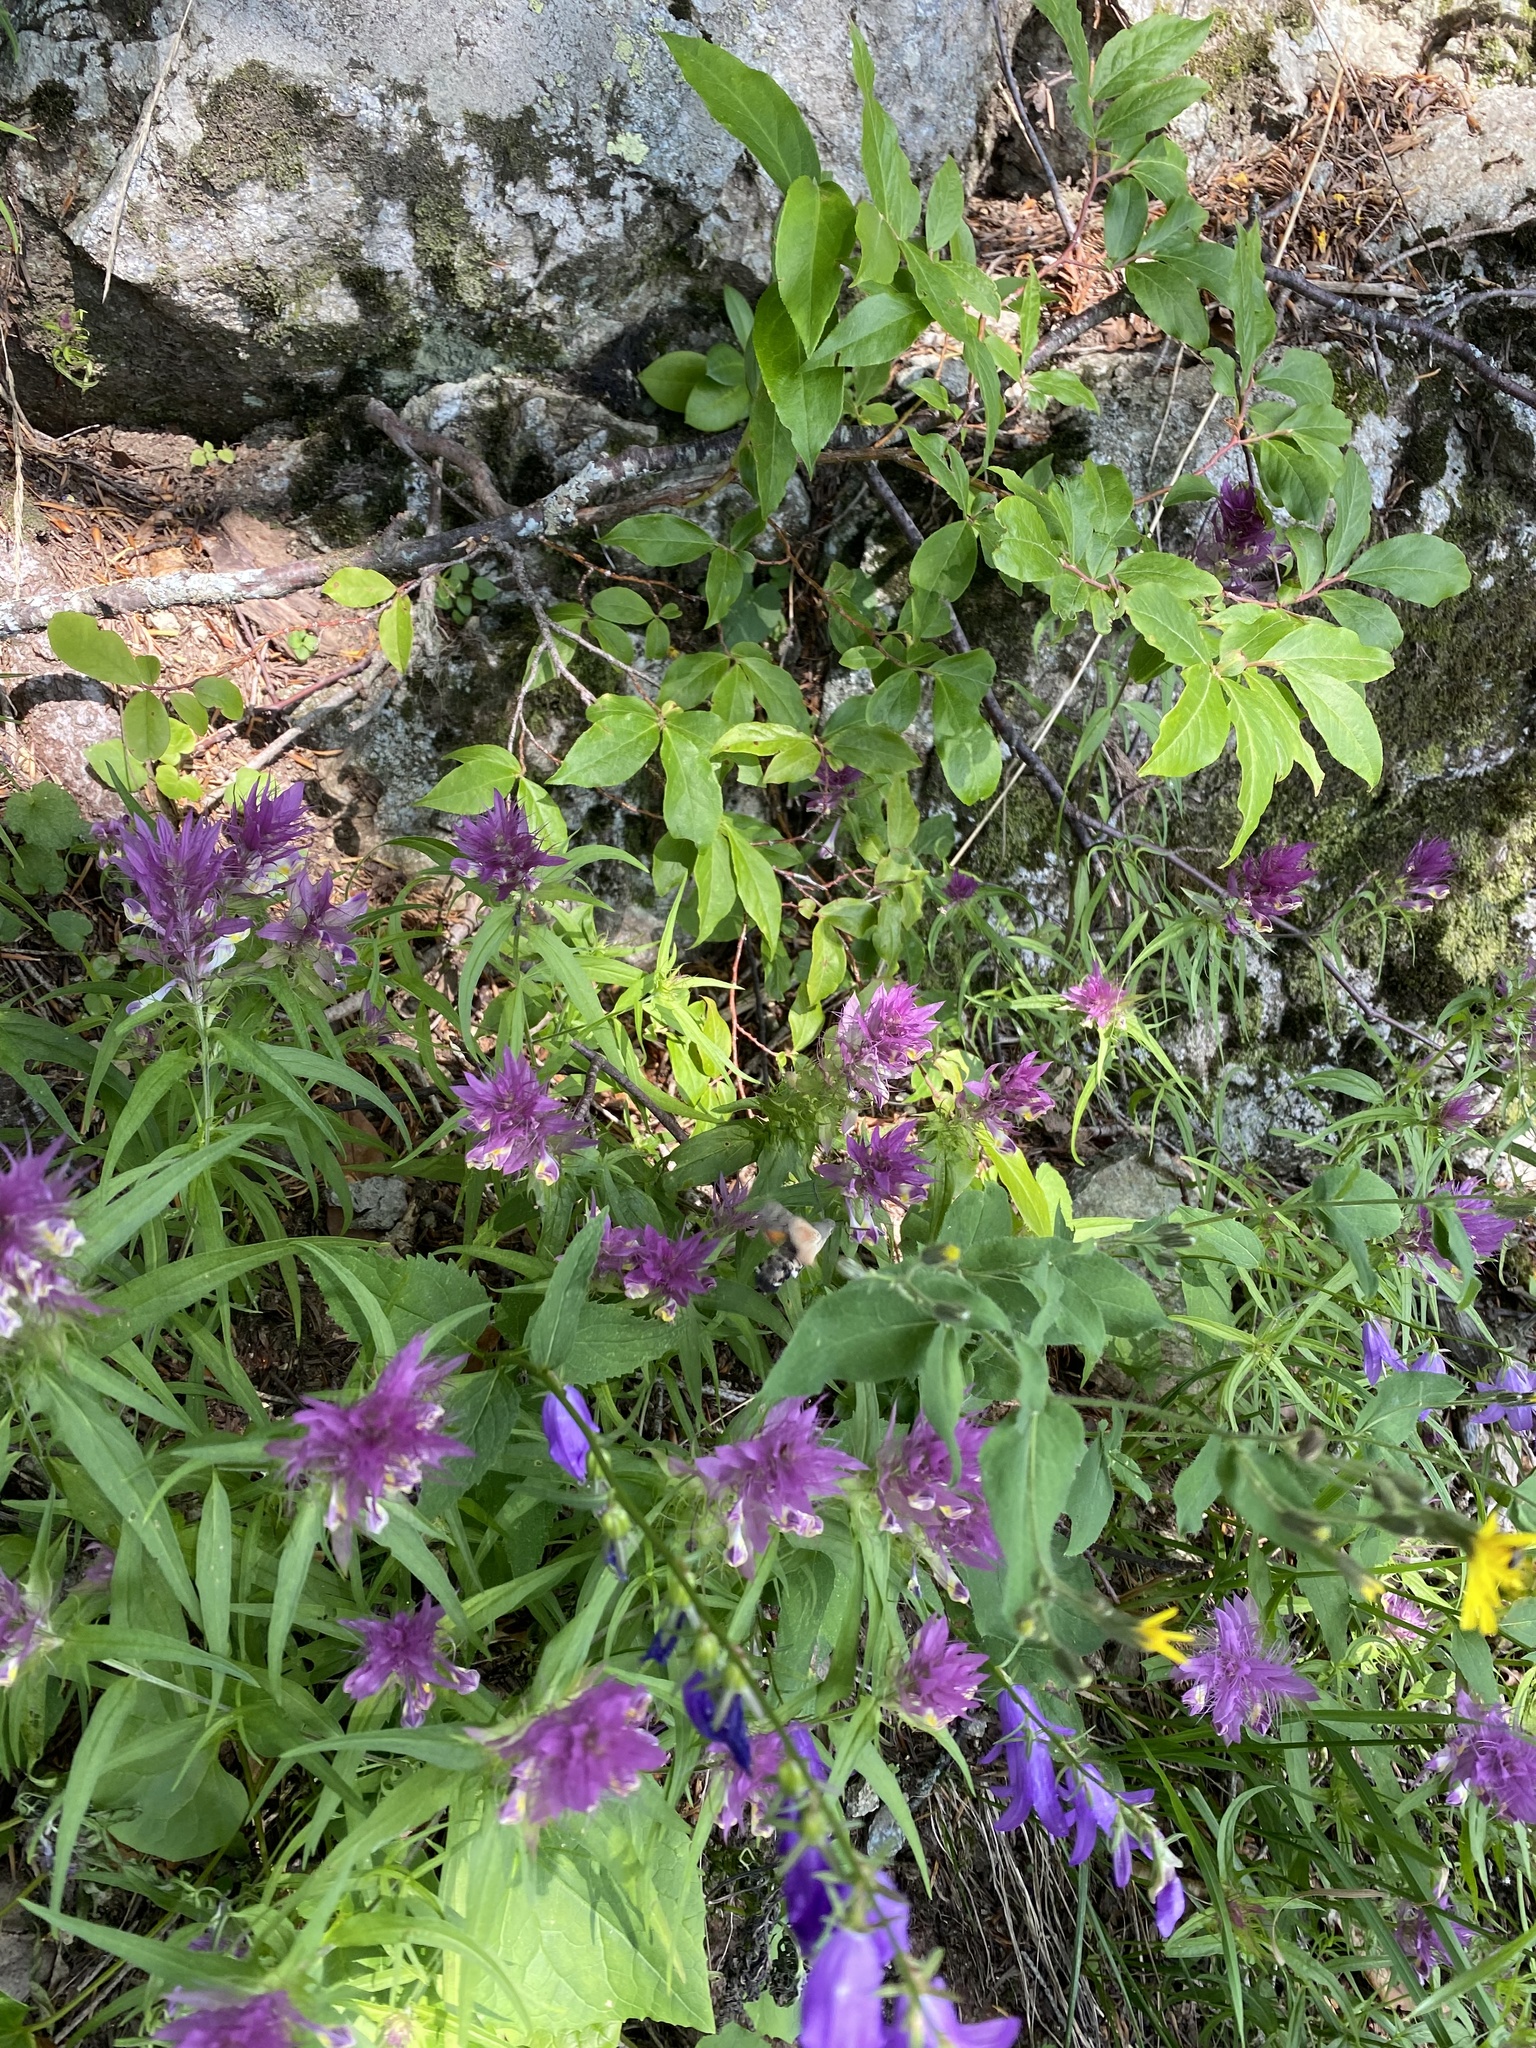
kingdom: Plantae
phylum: Tracheophyta
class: Magnoliopsida
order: Lamiales
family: Orobanchaceae
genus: Melampyrum
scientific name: Melampyrum arvense
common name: Field cow-wheat
